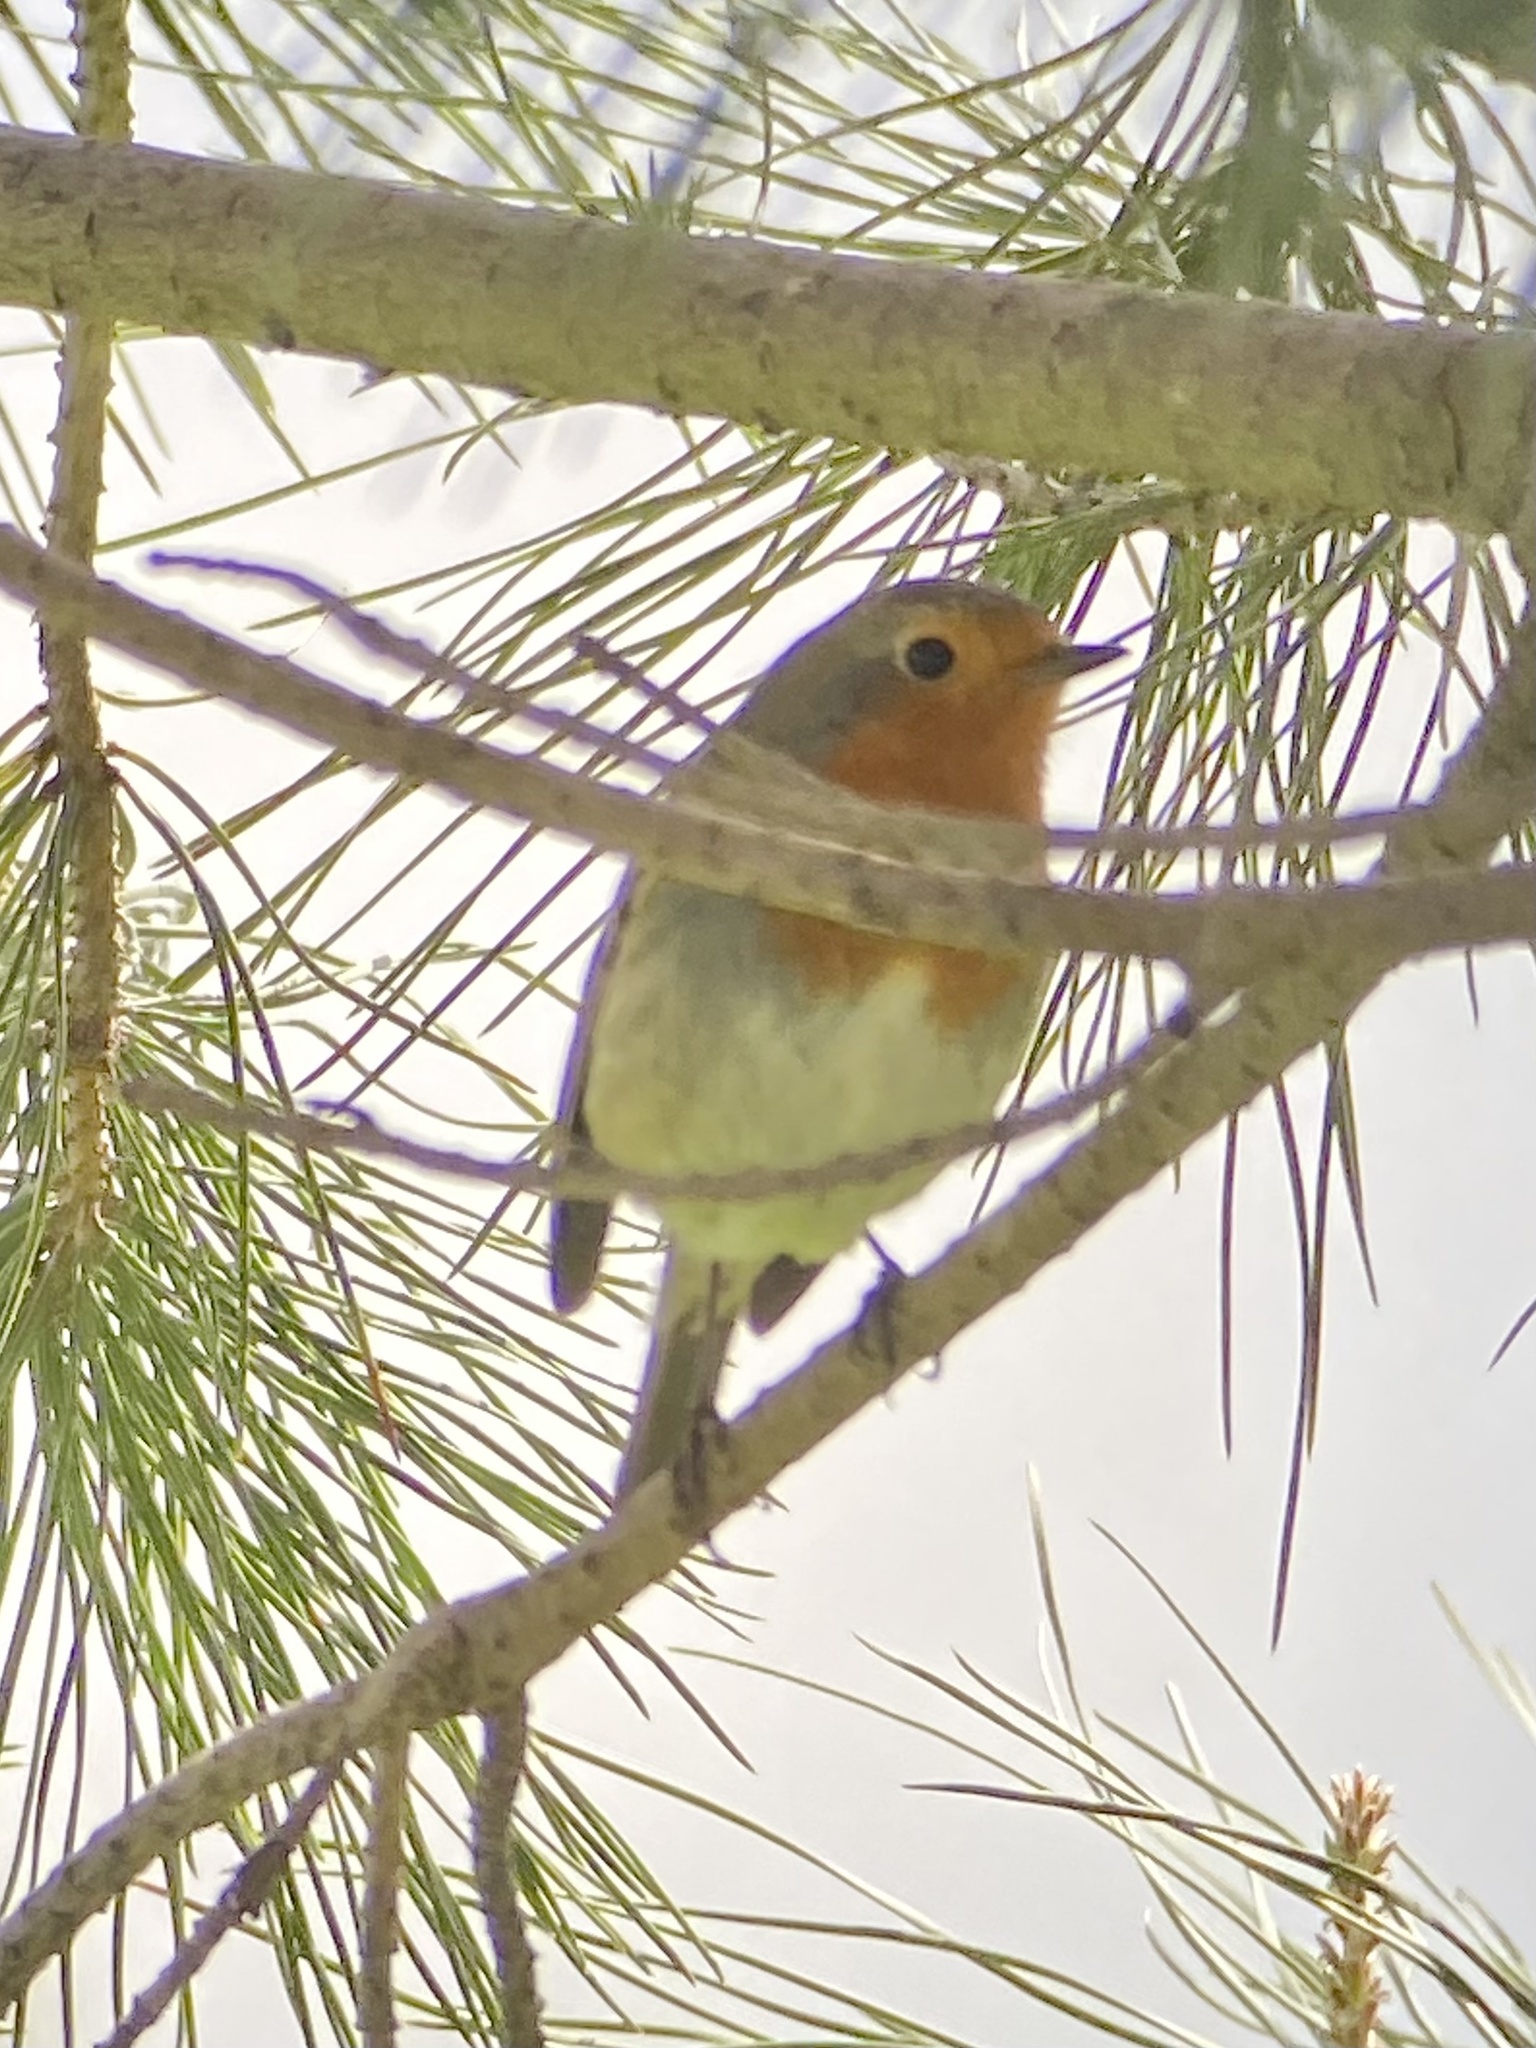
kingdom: Animalia
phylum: Chordata
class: Aves
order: Passeriformes
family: Muscicapidae
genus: Erithacus
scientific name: Erithacus rubecula
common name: European robin
